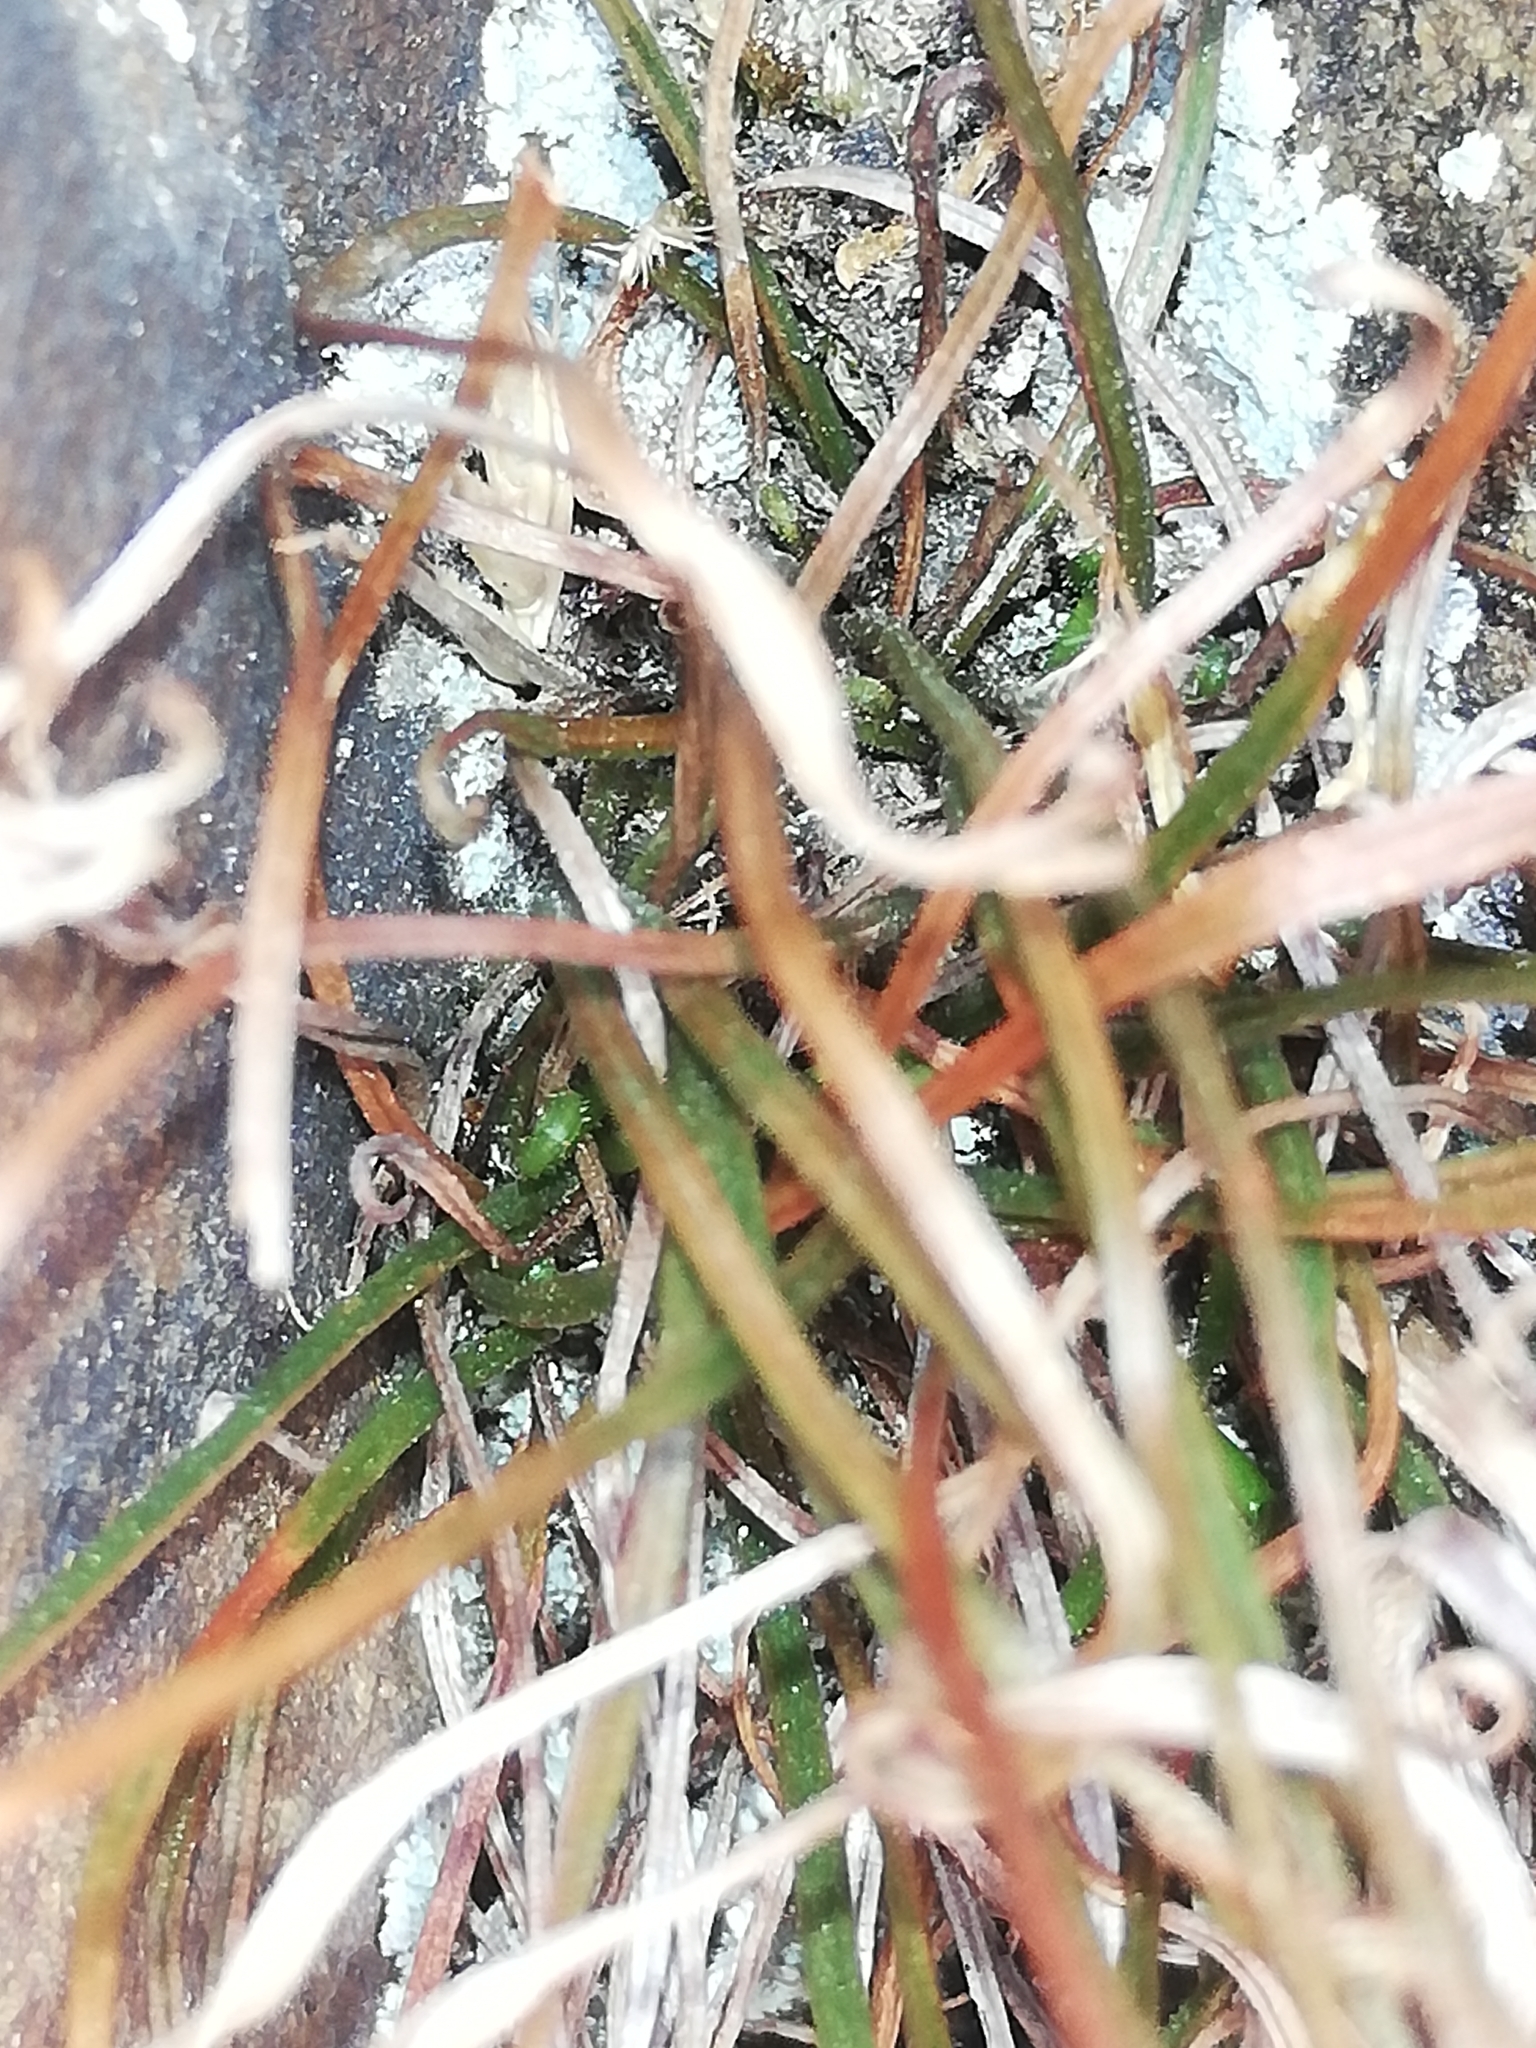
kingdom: Plantae
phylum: Tracheophyta
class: Polypodiopsida
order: Polypodiales
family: Aspleniaceae
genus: Asplenium
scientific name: Asplenium septentrionale
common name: Forked spleenwort
